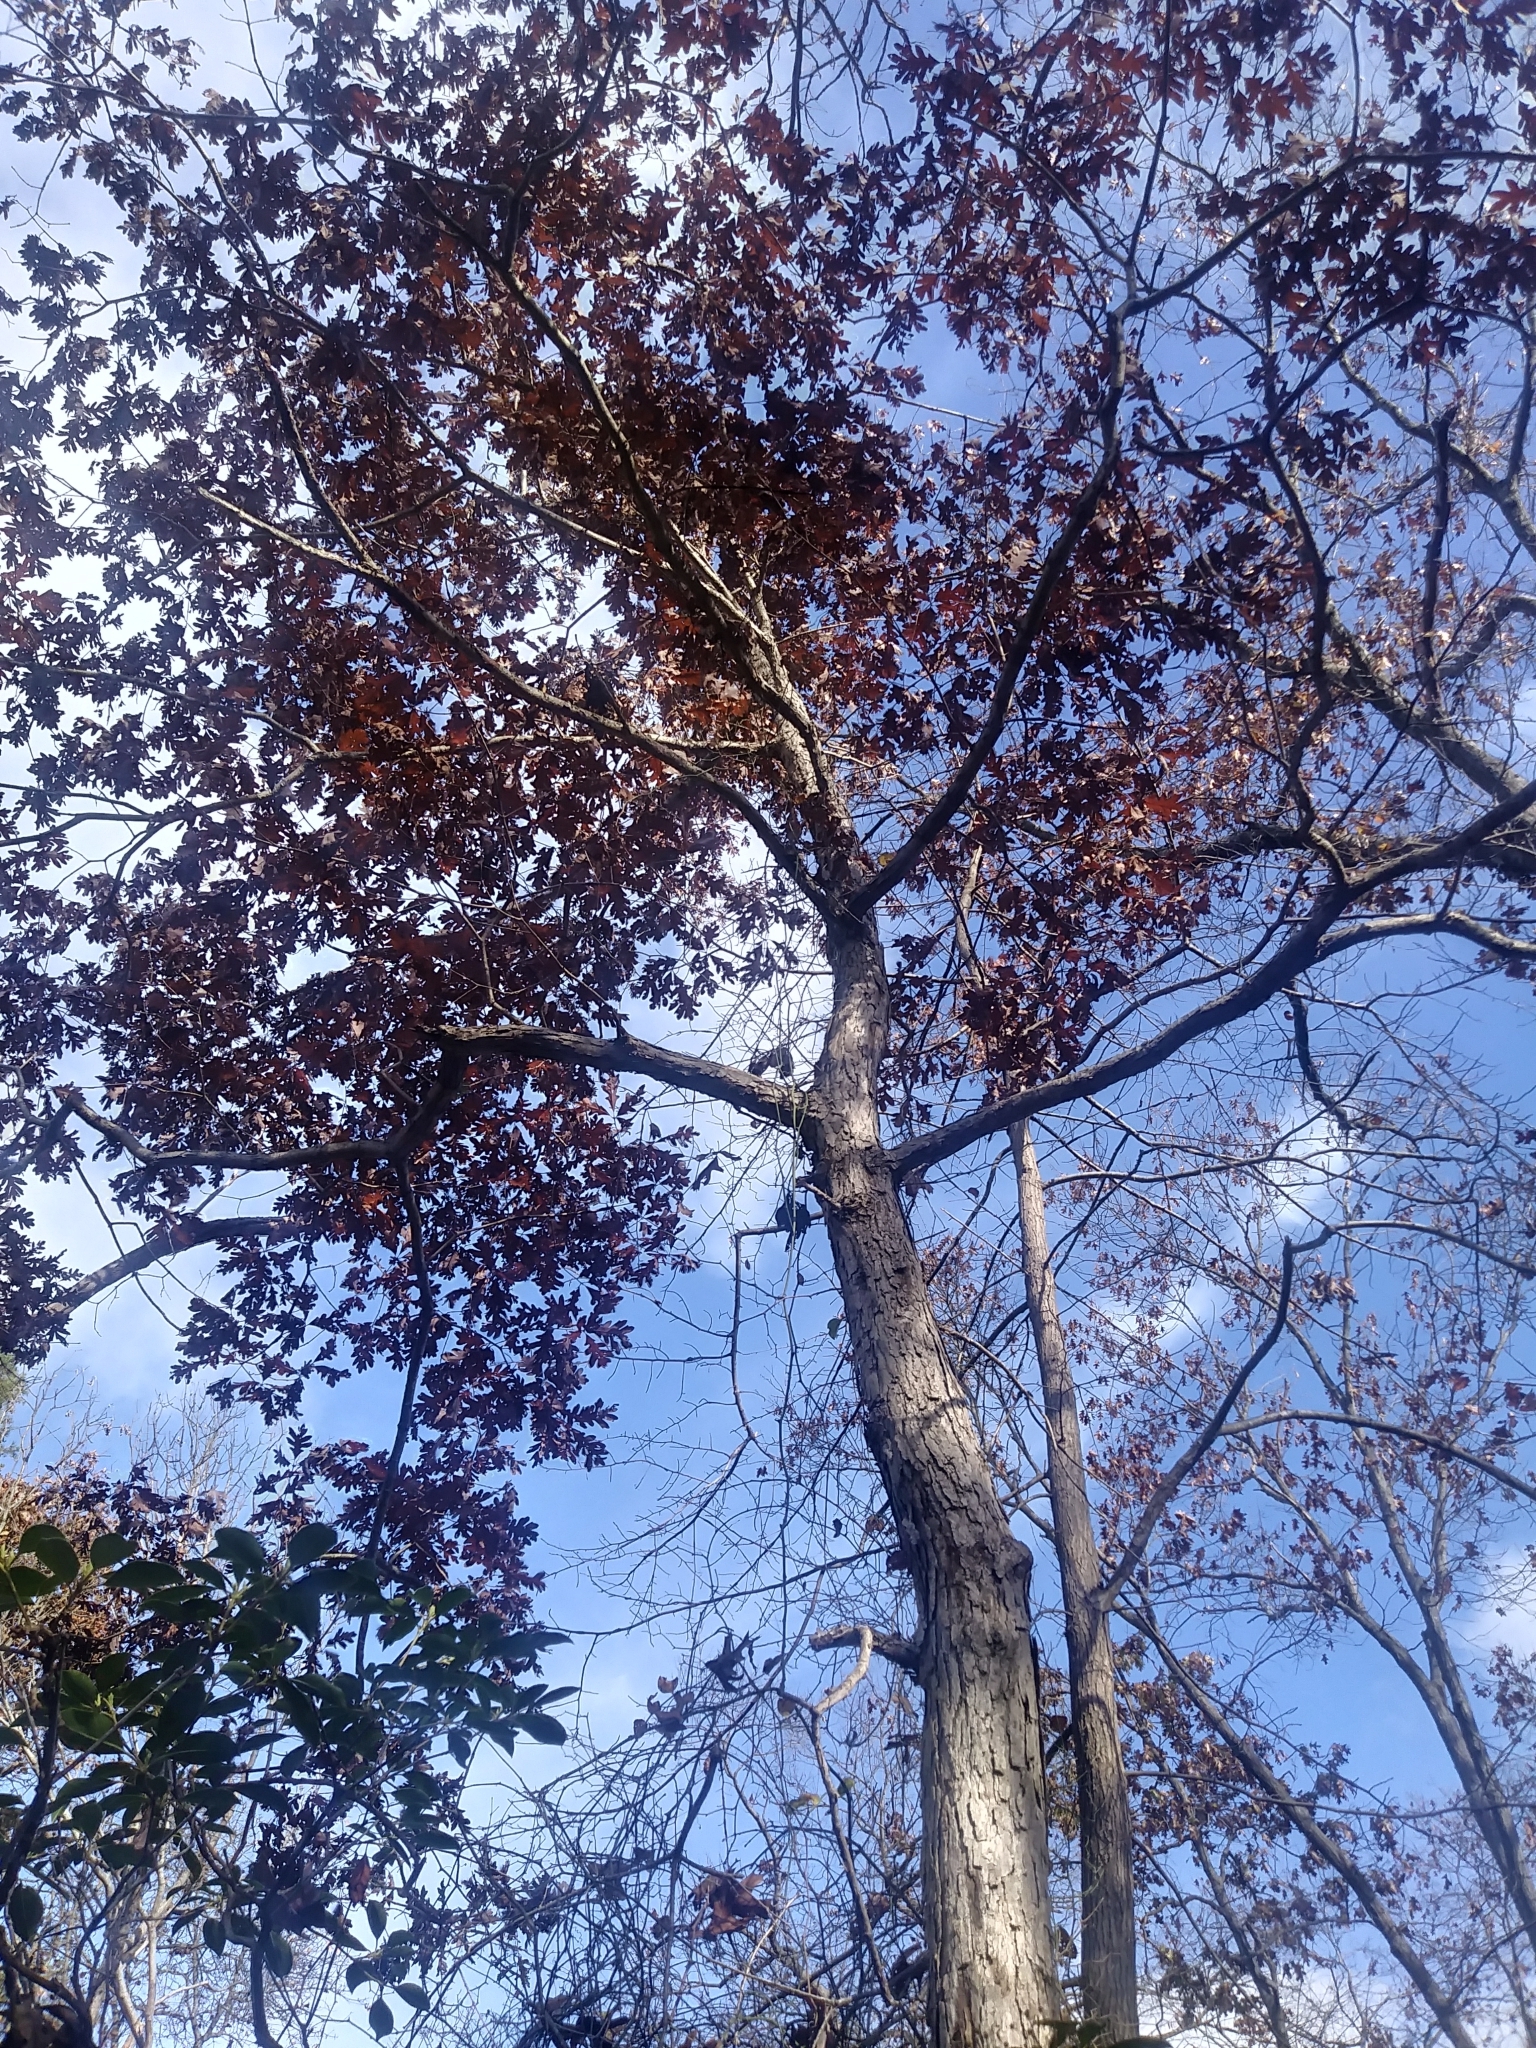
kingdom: Plantae
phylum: Tracheophyta
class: Magnoliopsida
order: Fagales
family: Fagaceae
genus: Quercus
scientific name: Quercus alba
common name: White oak
